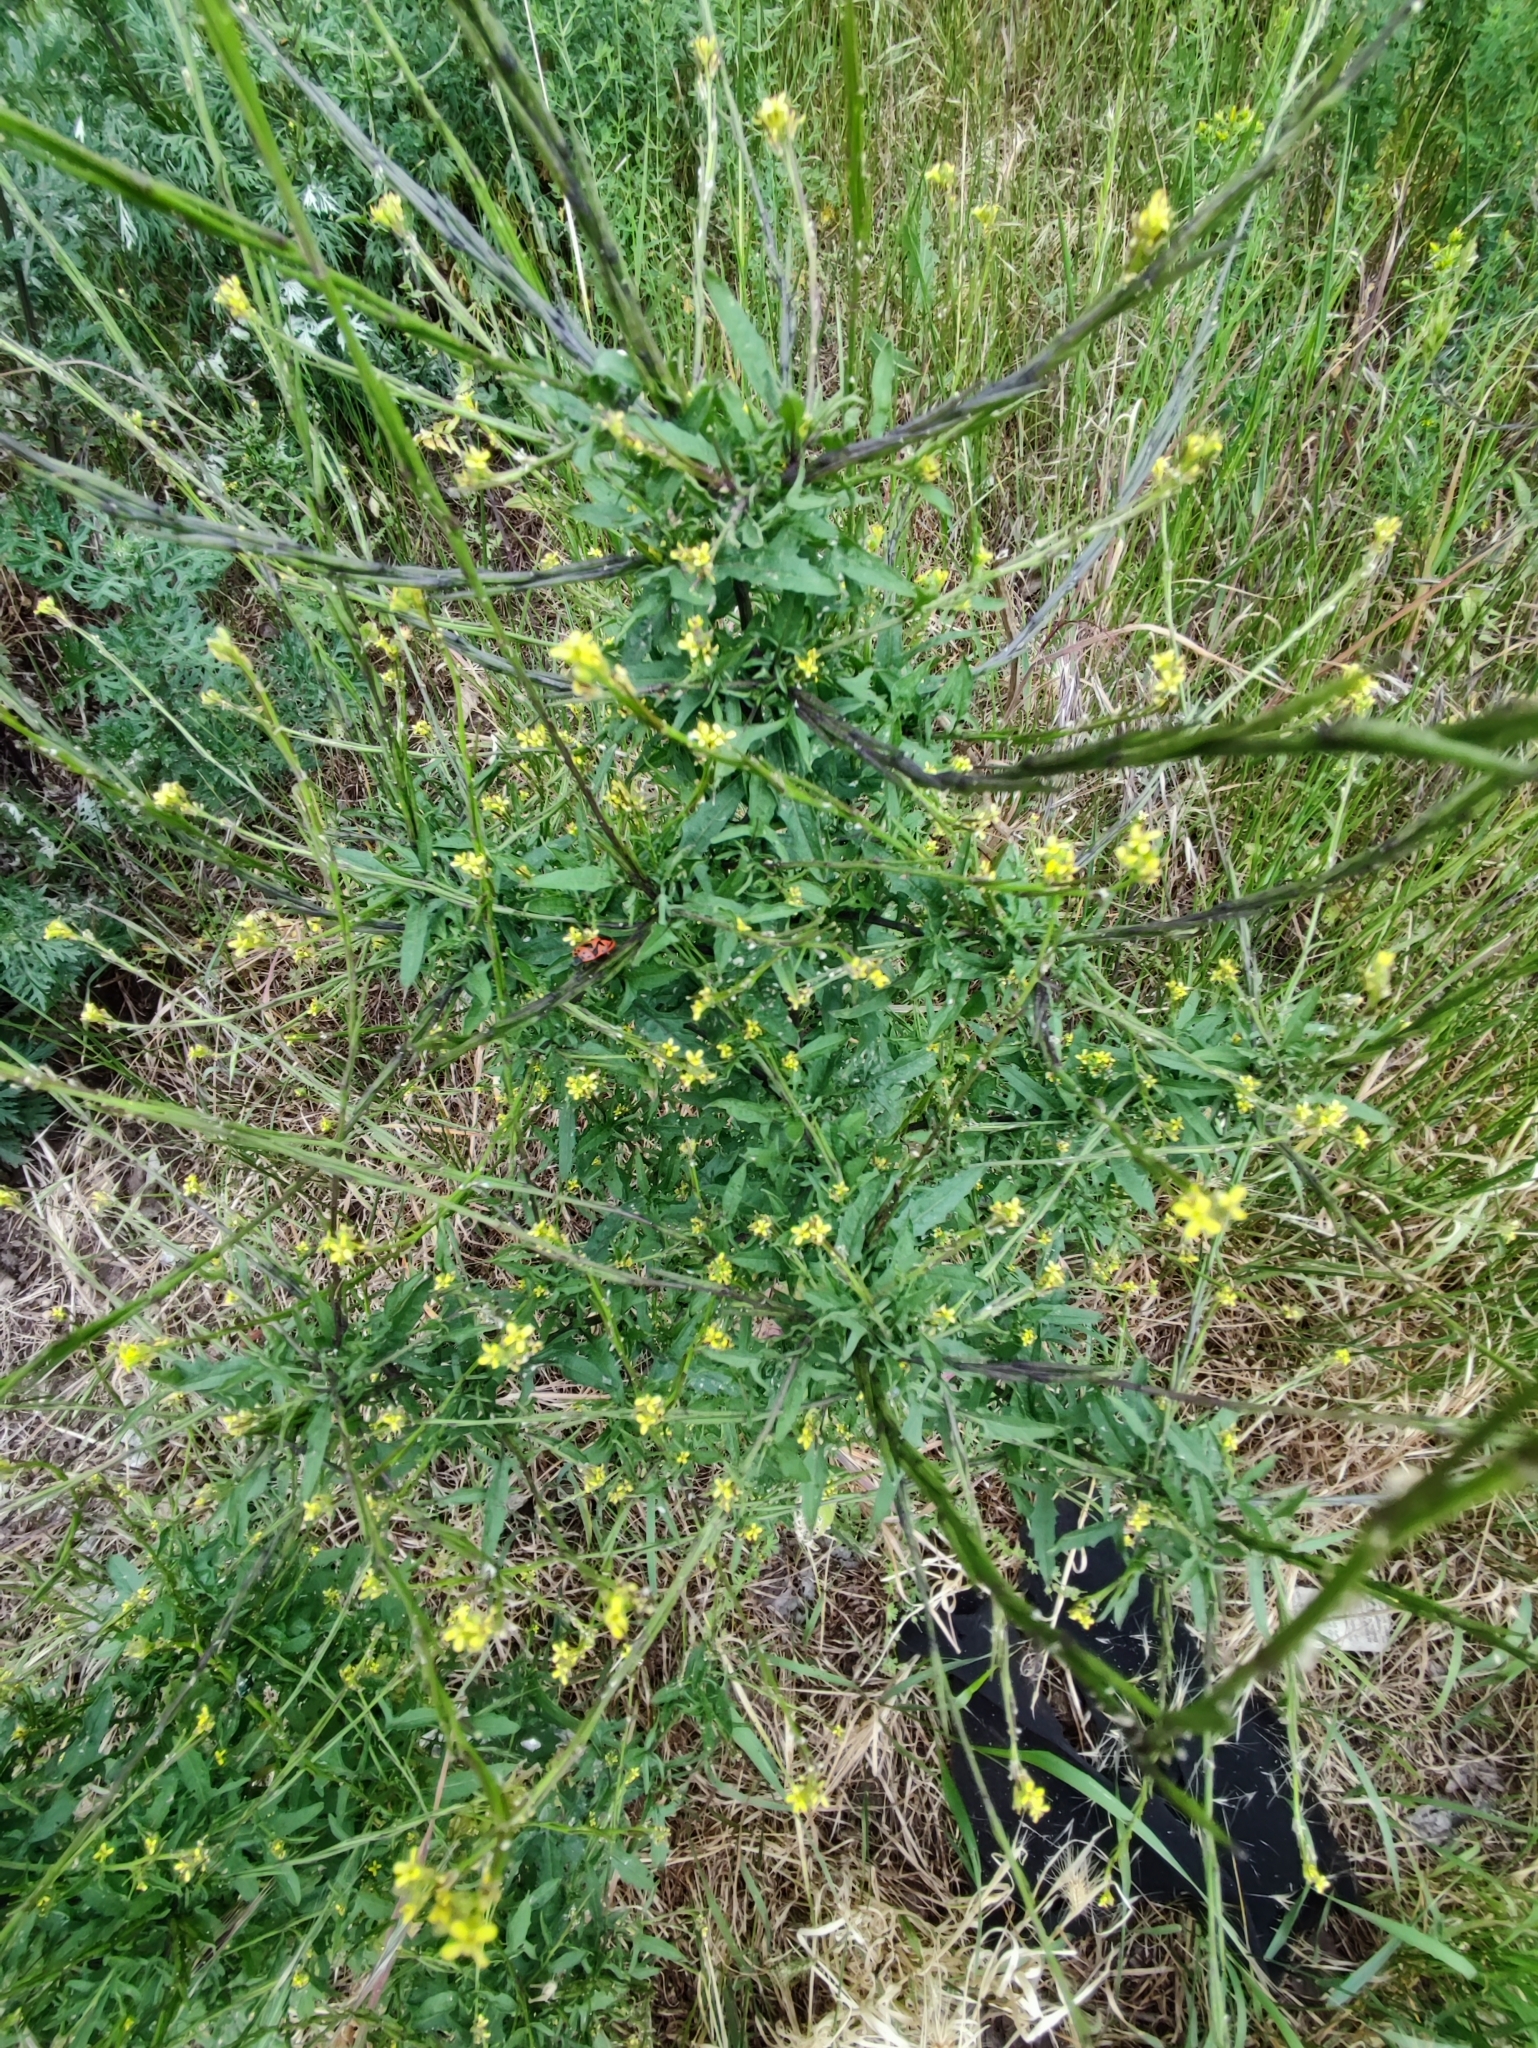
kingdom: Plantae
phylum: Tracheophyta
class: Magnoliopsida
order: Brassicales
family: Brassicaceae
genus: Sisymbrium
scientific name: Sisymbrium officinale
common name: Hedge mustard
